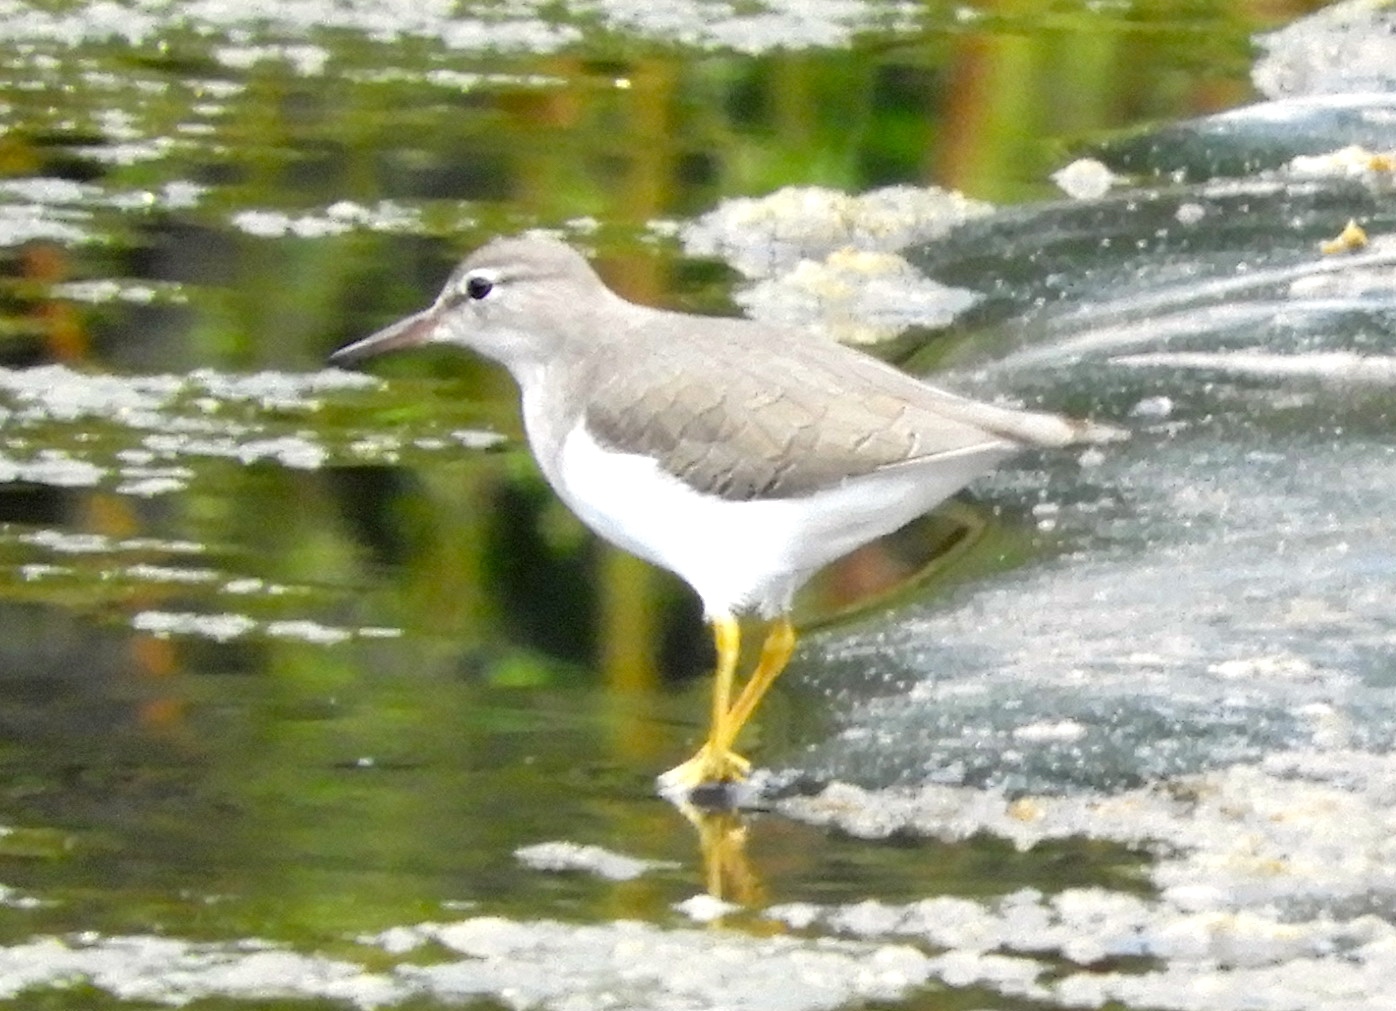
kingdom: Animalia
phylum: Chordata
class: Aves
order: Charadriiformes
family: Scolopacidae
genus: Actitis
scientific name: Actitis macularius
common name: Spotted sandpiper
